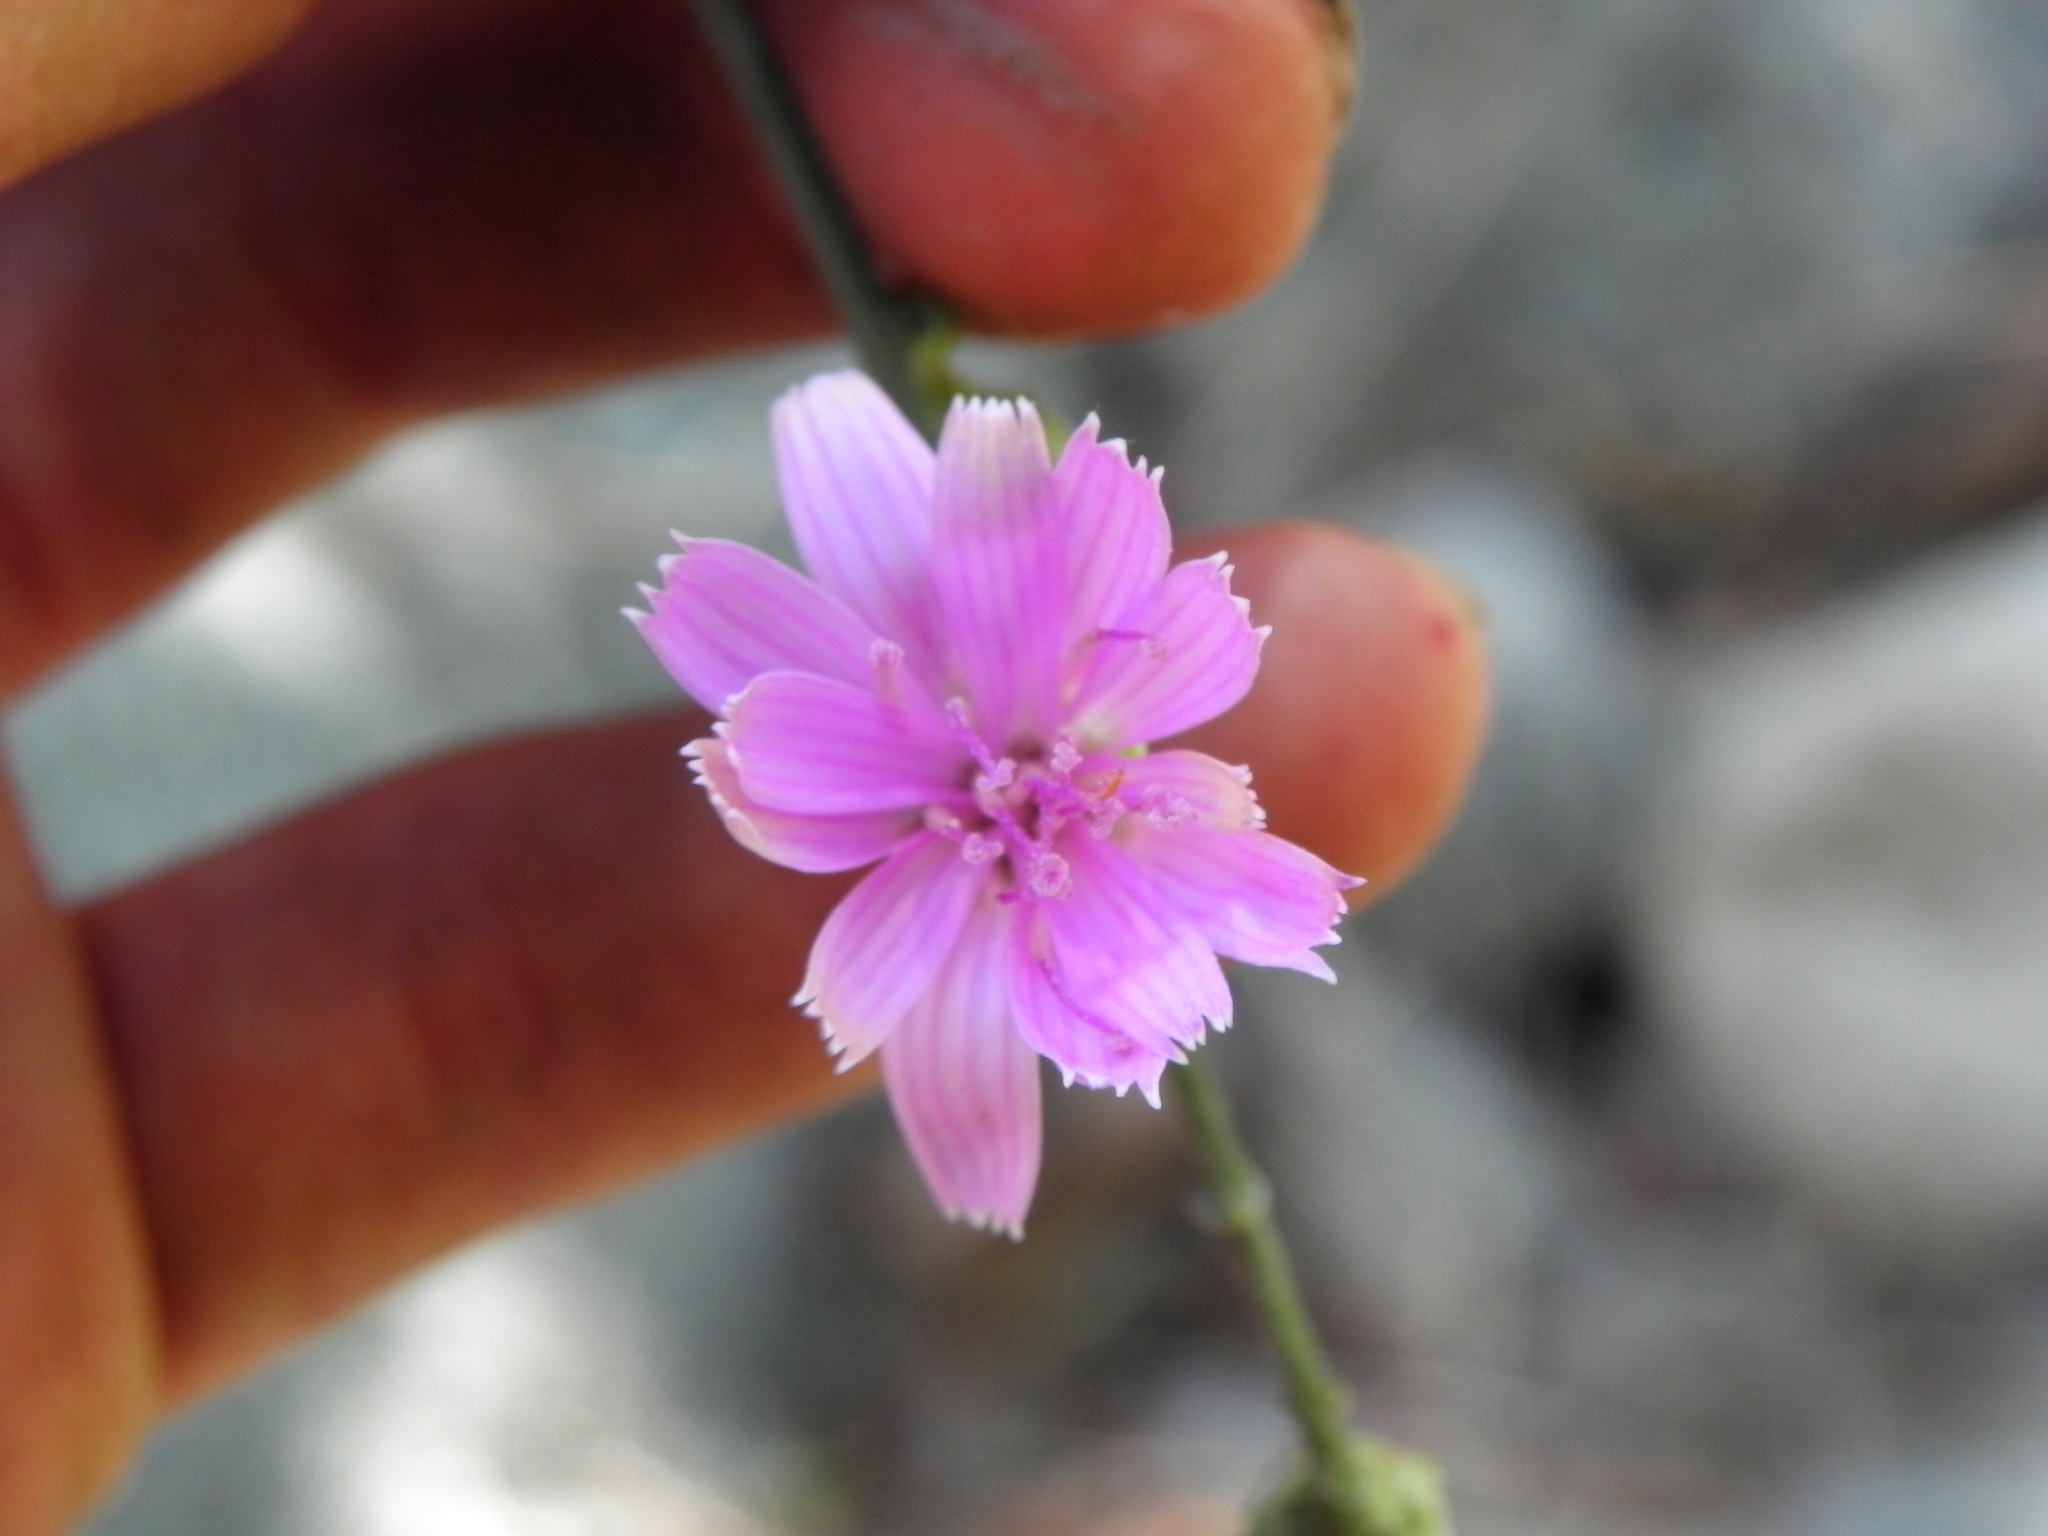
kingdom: Plantae
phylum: Tracheophyta
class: Magnoliopsida
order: Asterales
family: Asteraceae
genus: Stephanomeria
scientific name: Stephanomeria cichoriacea
